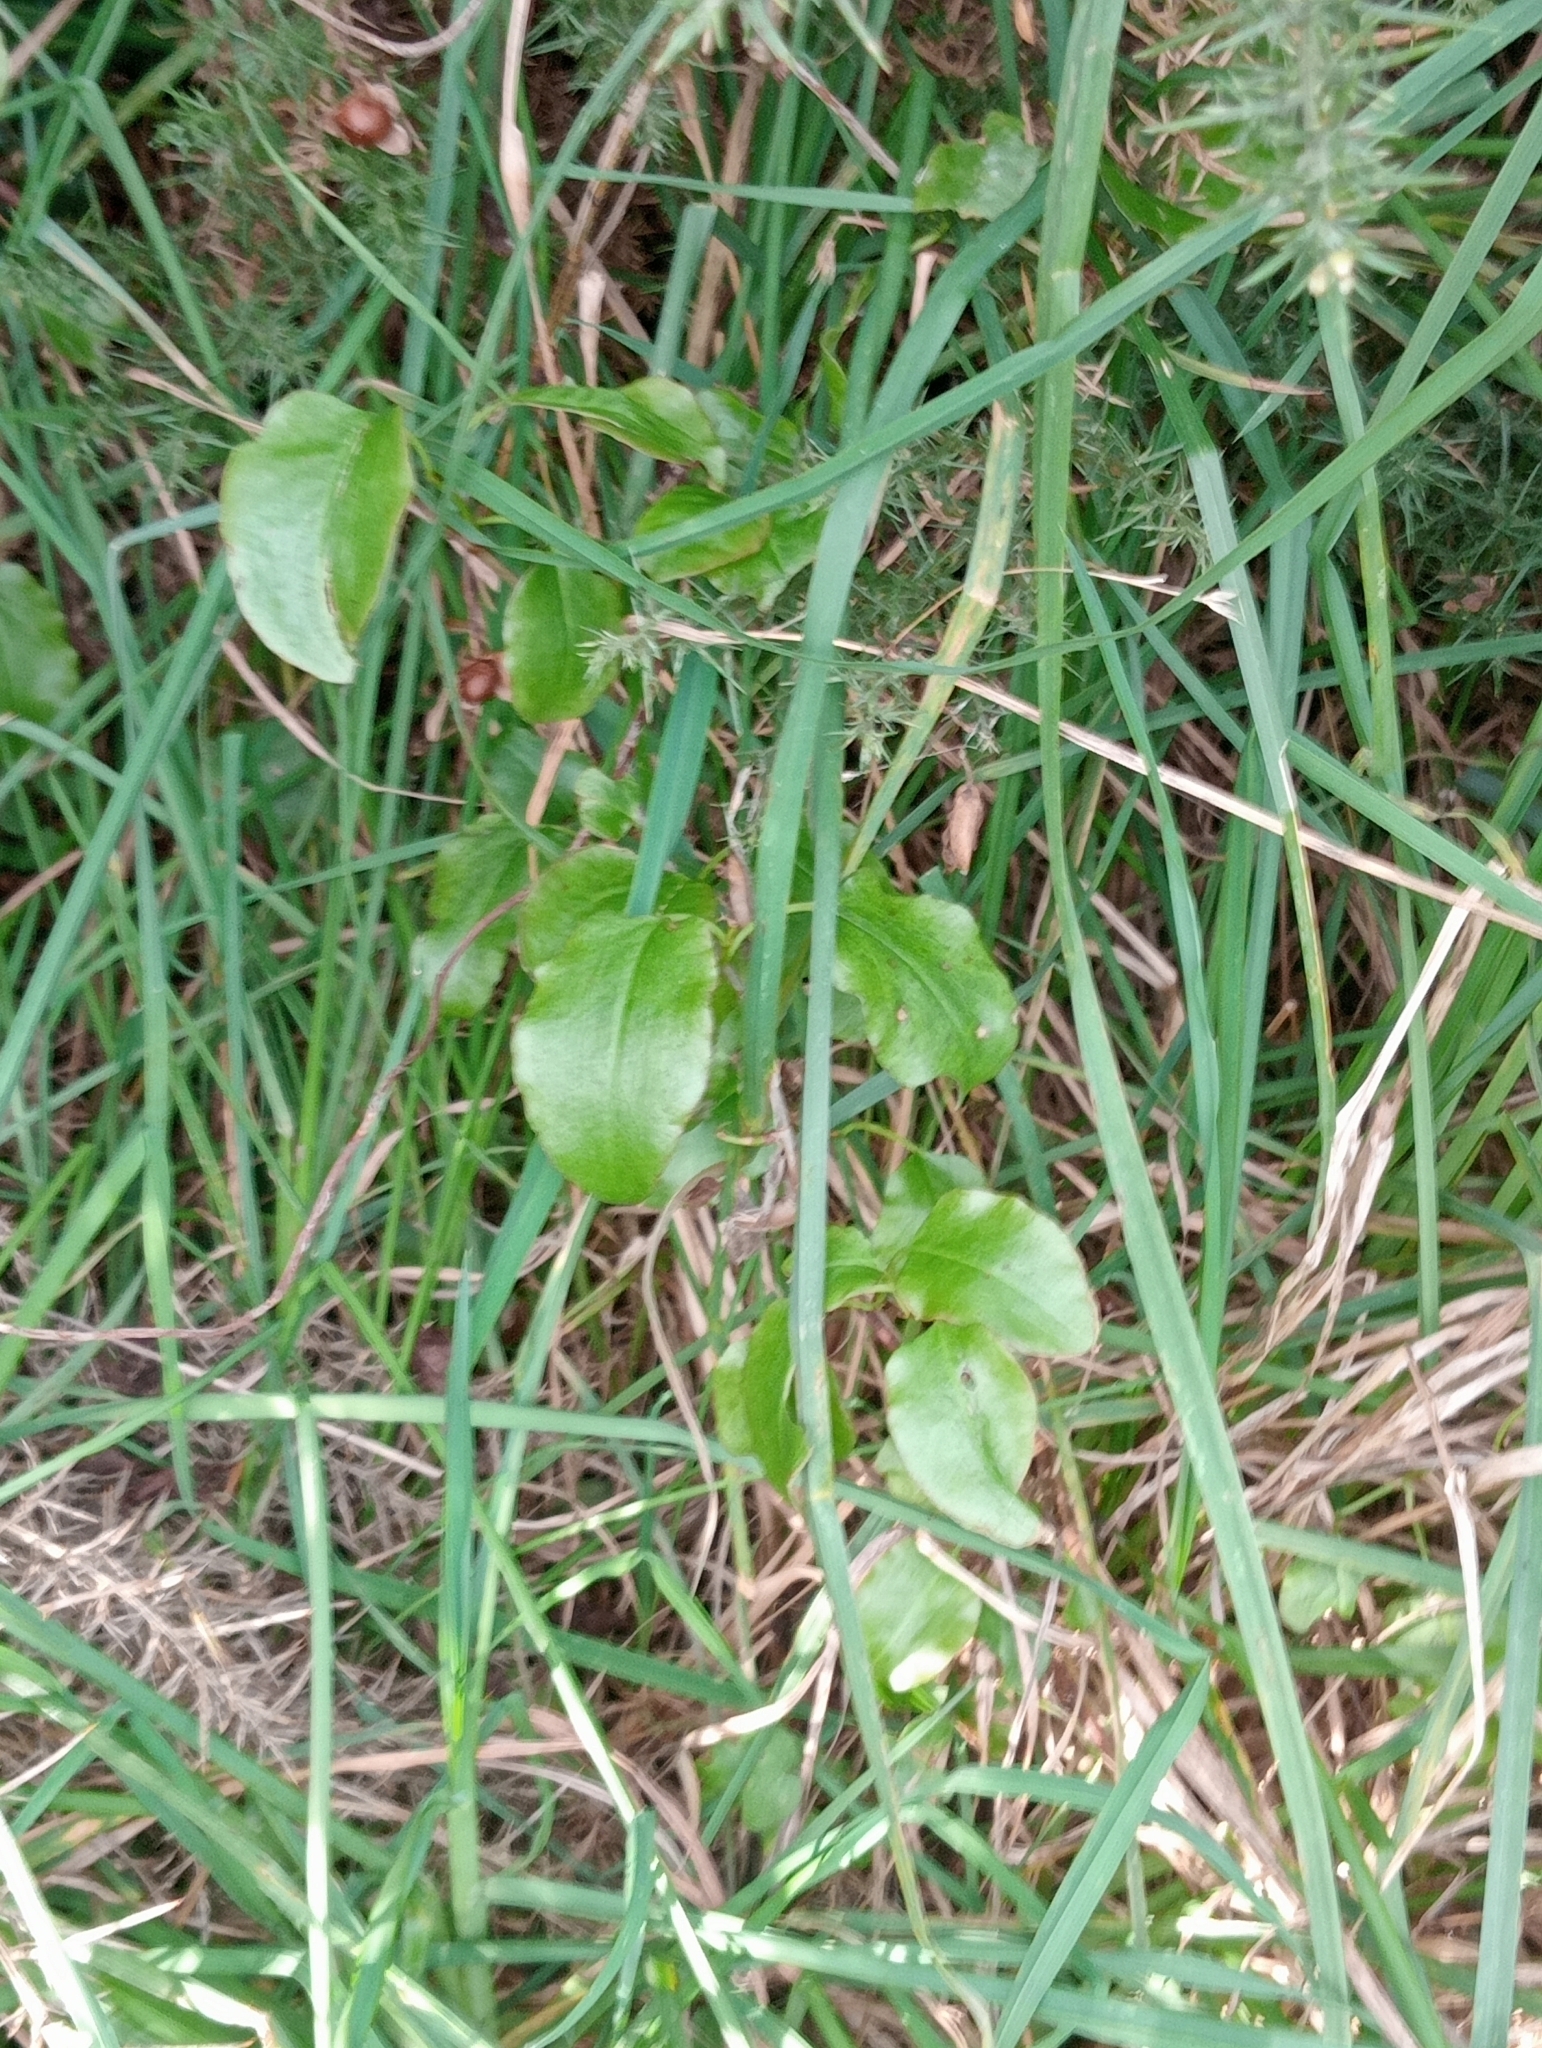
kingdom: Plantae
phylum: Tracheophyta
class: Magnoliopsida
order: Caryophyllales
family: Polygonaceae
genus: Muehlenbeckia
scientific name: Muehlenbeckia australis
